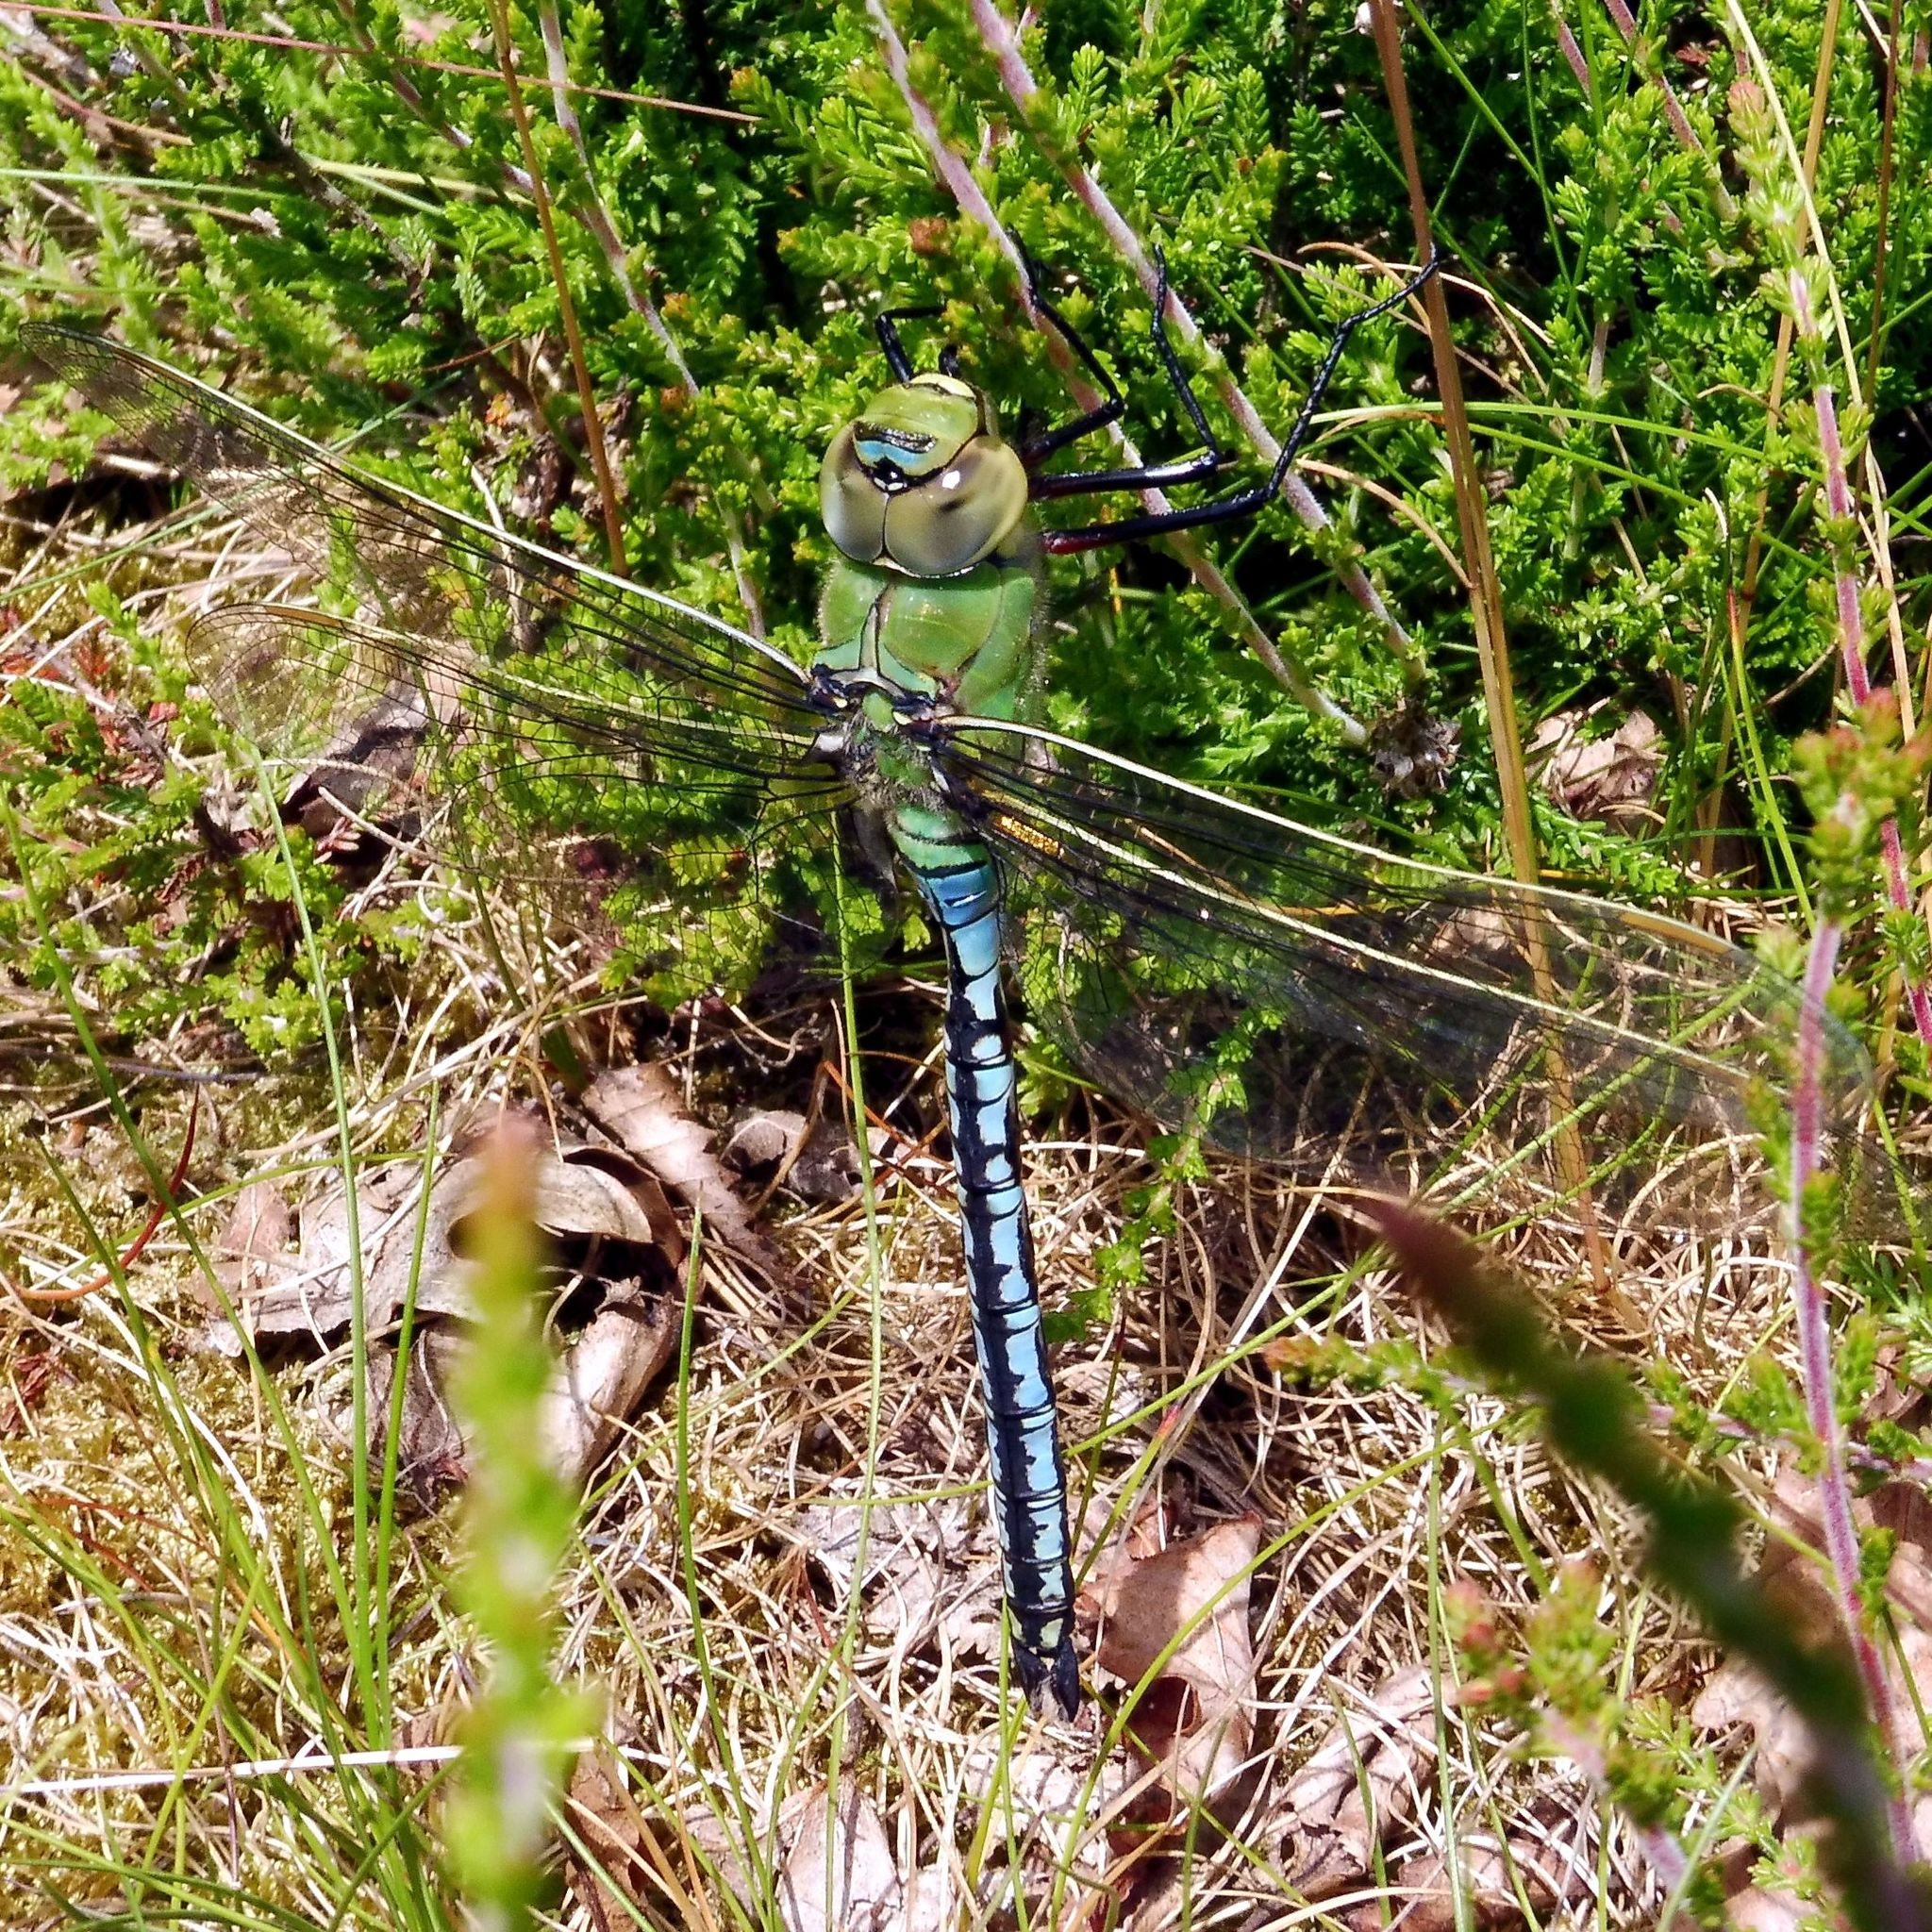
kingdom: Animalia
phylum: Arthropoda
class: Insecta
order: Odonata
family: Aeshnidae
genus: Anax
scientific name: Anax imperator
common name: Emperor dragonfly
